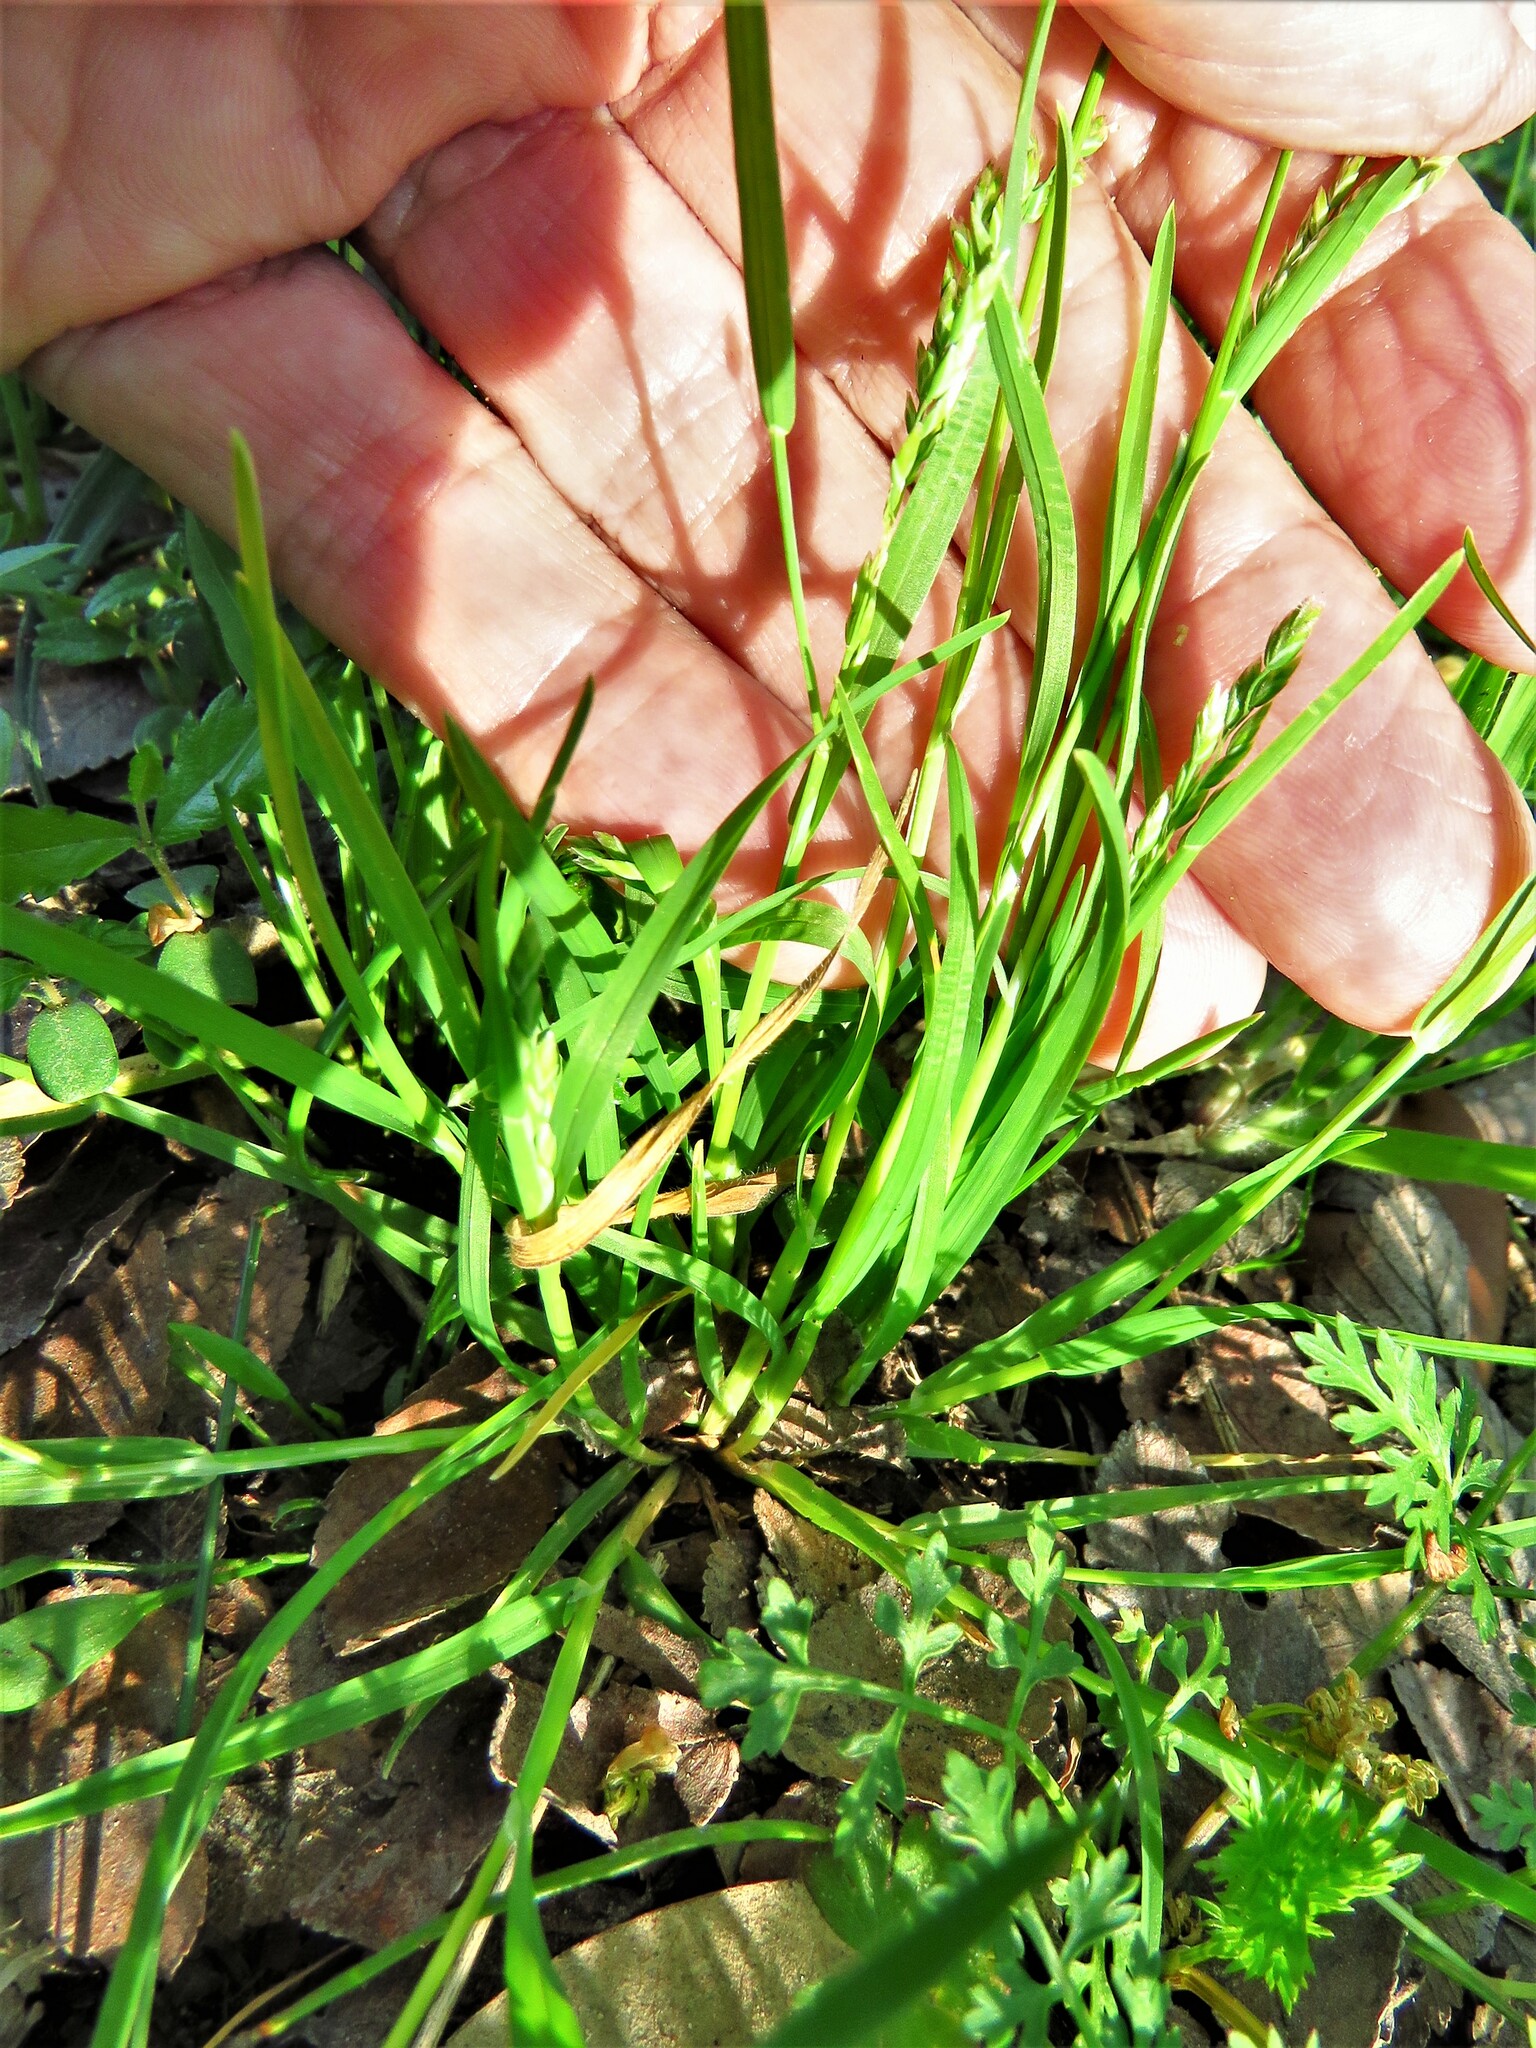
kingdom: Plantae
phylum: Tracheophyta
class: Liliopsida
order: Poales
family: Poaceae
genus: Poa
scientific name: Poa annua
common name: Annual bluegrass
